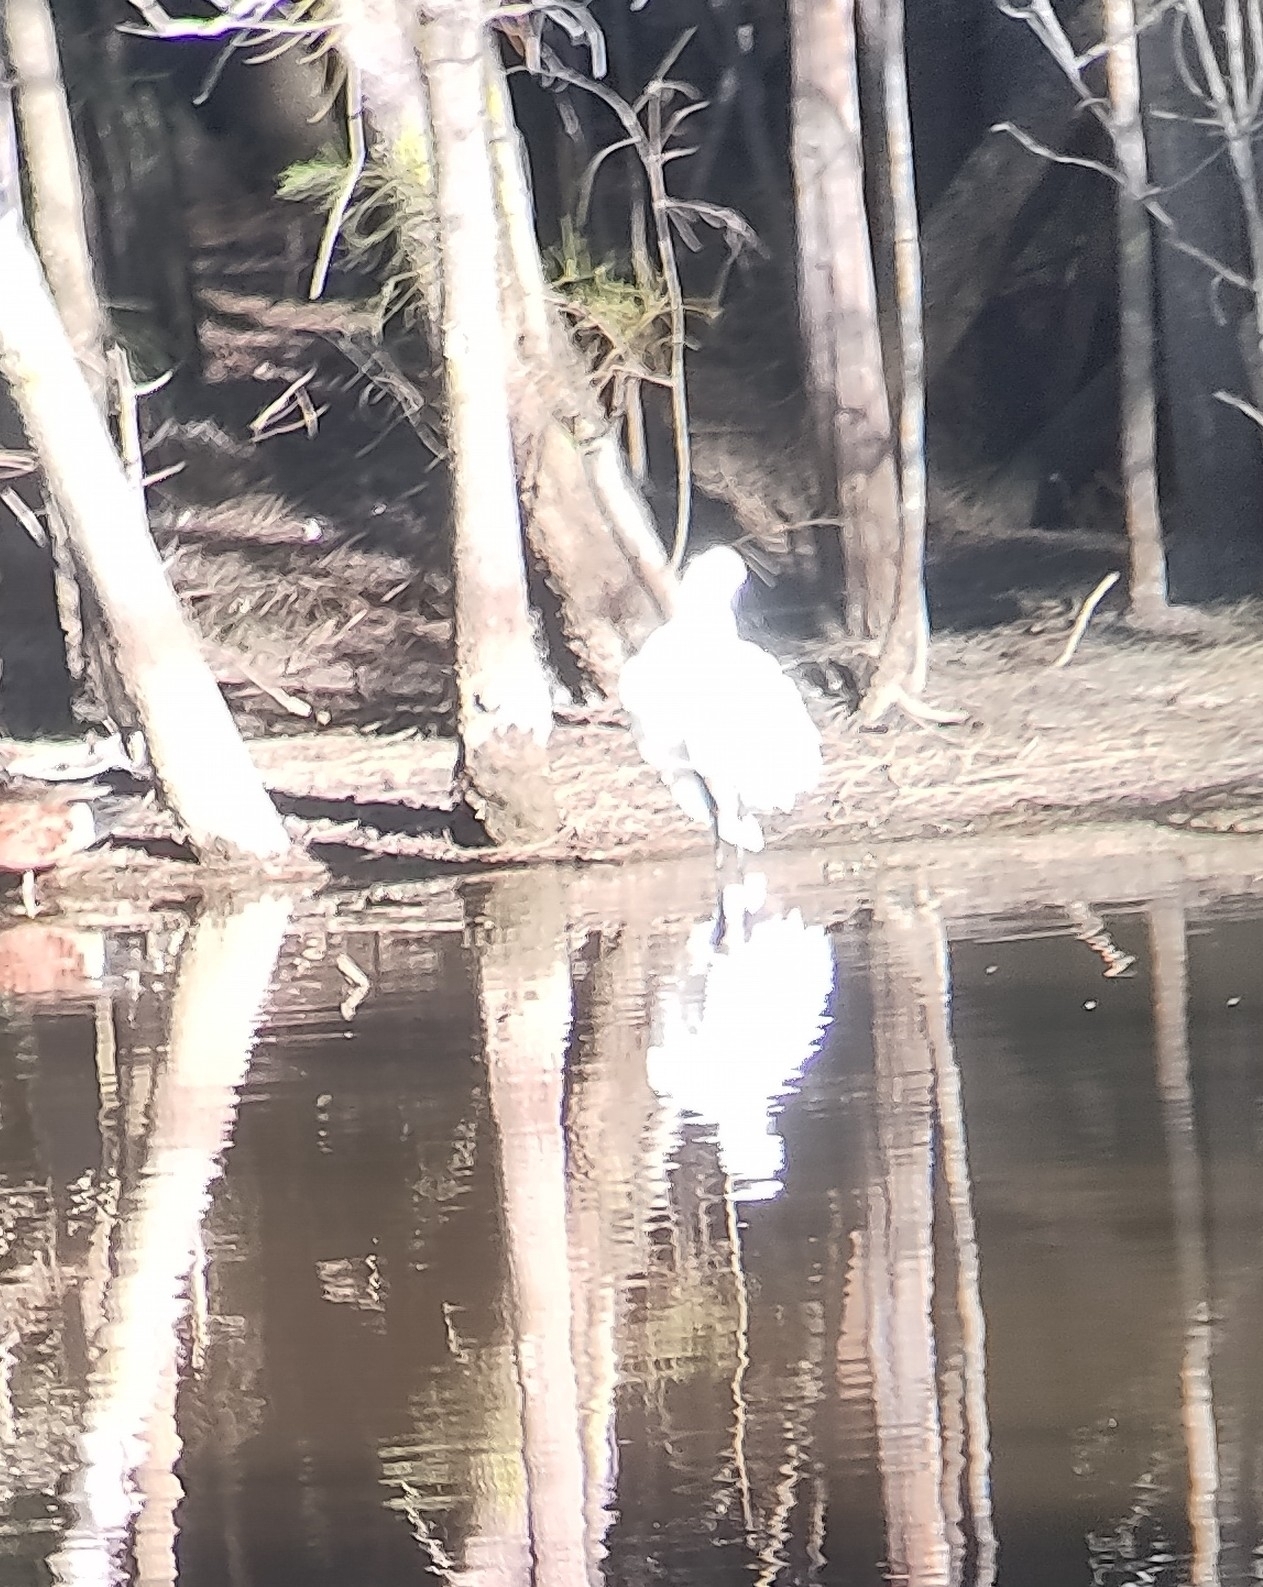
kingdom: Animalia
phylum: Chordata
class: Aves
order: Pelecaniformes
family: Threskiornithidae
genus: Platalea
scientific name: Platalea regia
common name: Royal spoonbill
